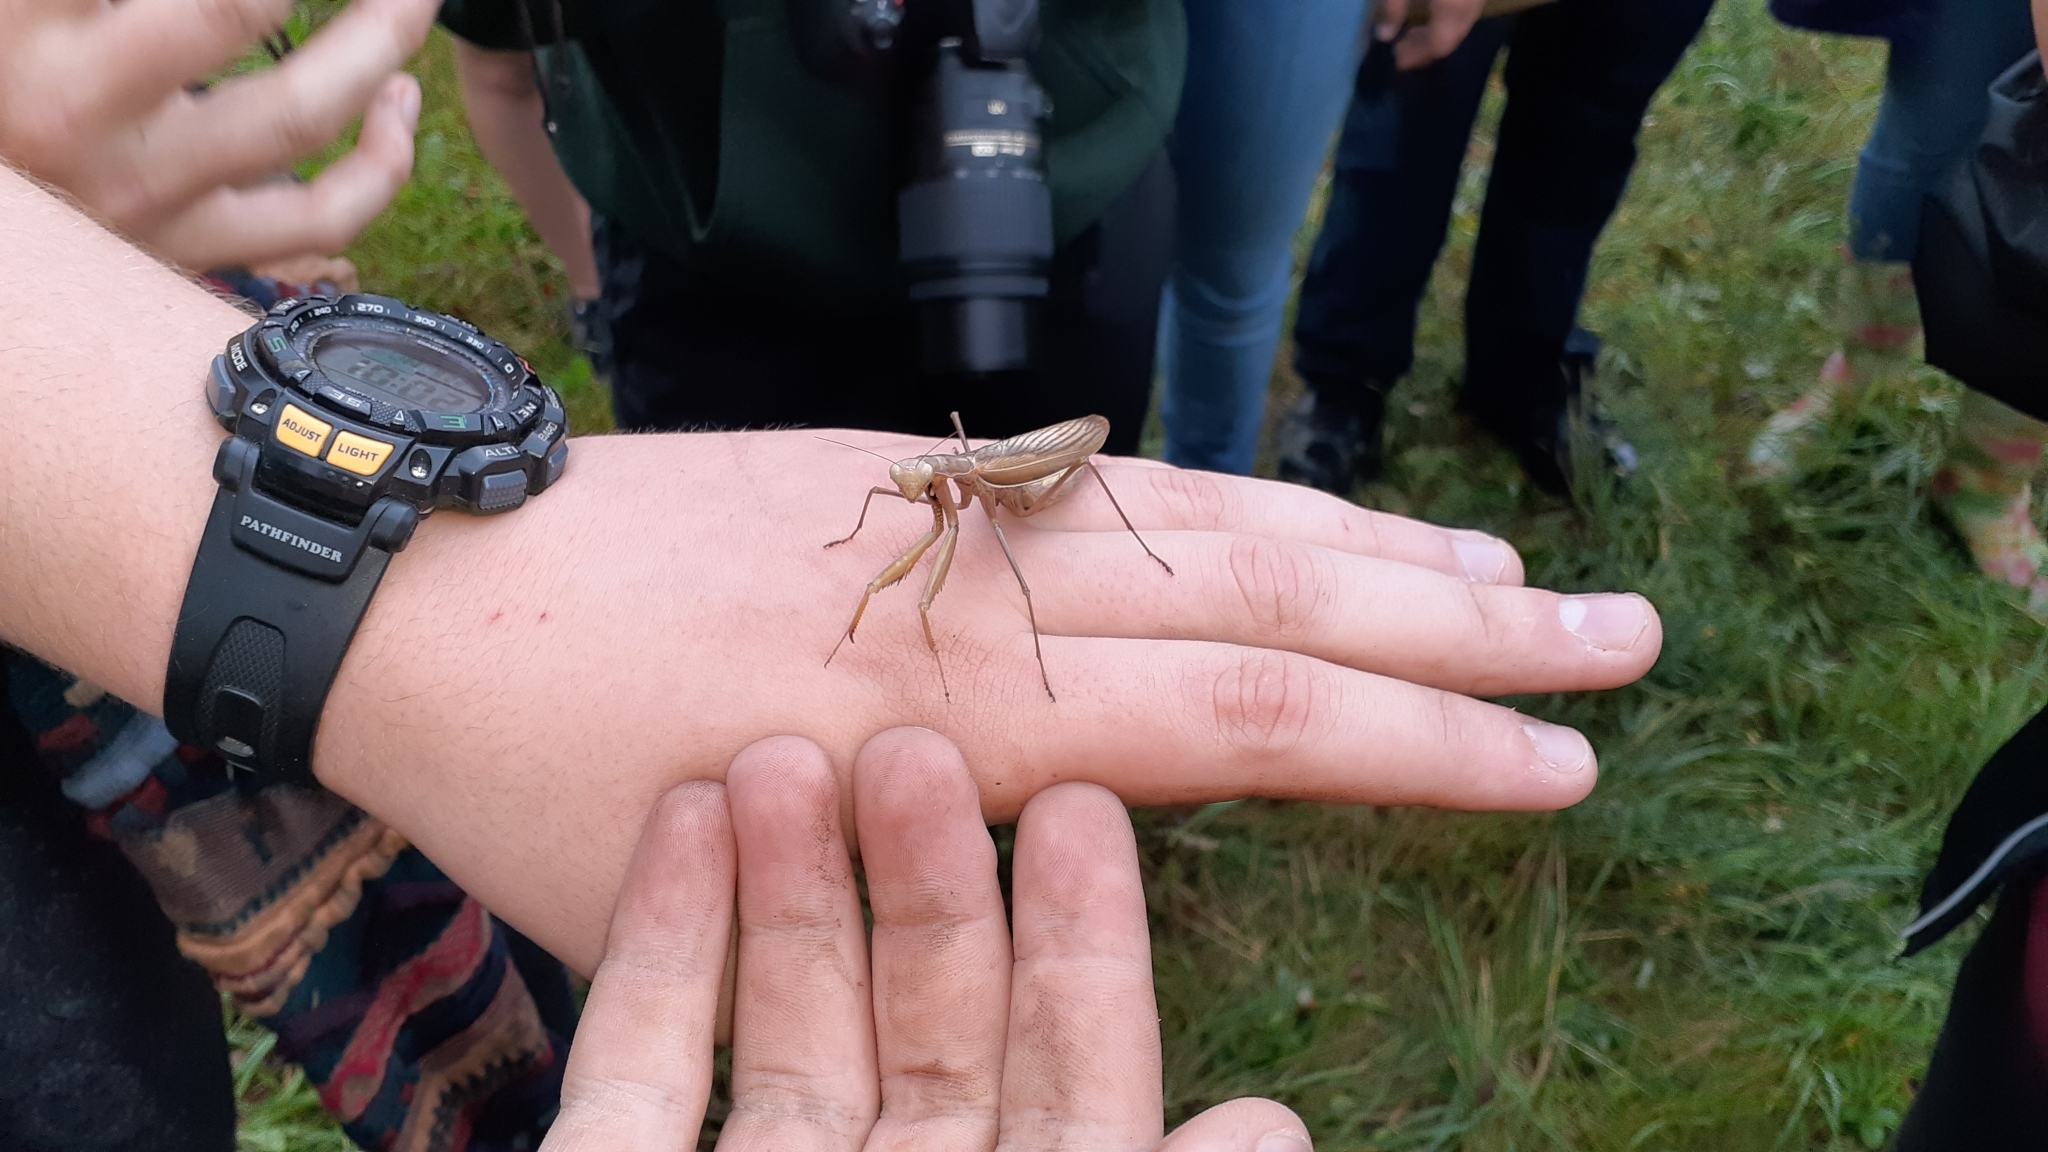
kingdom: Animalia
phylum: Arthropoda
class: Insecta
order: Mantodea
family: Mantidae
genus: Mantis
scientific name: Mantis religiosa
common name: Praying mantis
